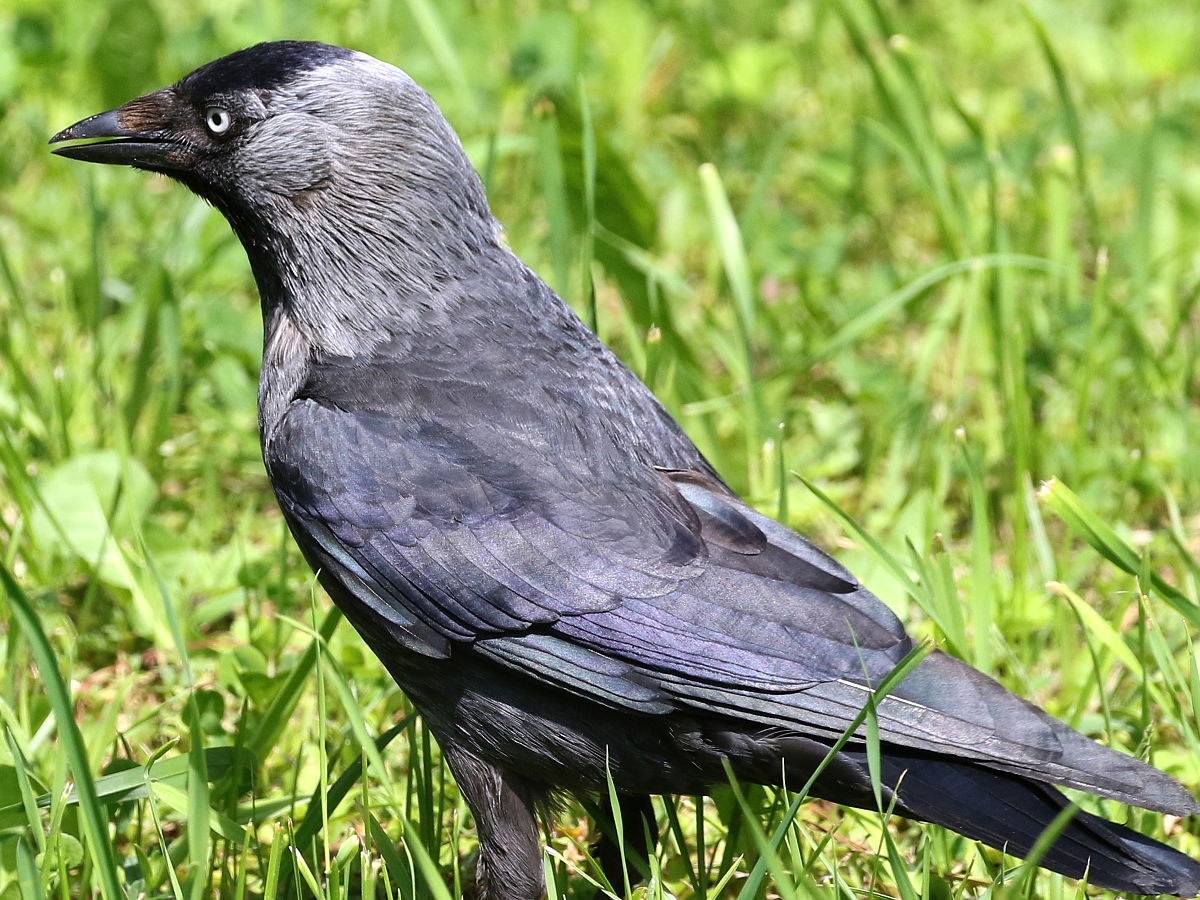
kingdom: Animalia
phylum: Chordata
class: Aves
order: Passeriformes
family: Corvidae
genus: Coloeus
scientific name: Coloeus monedula
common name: Western jackdaw
